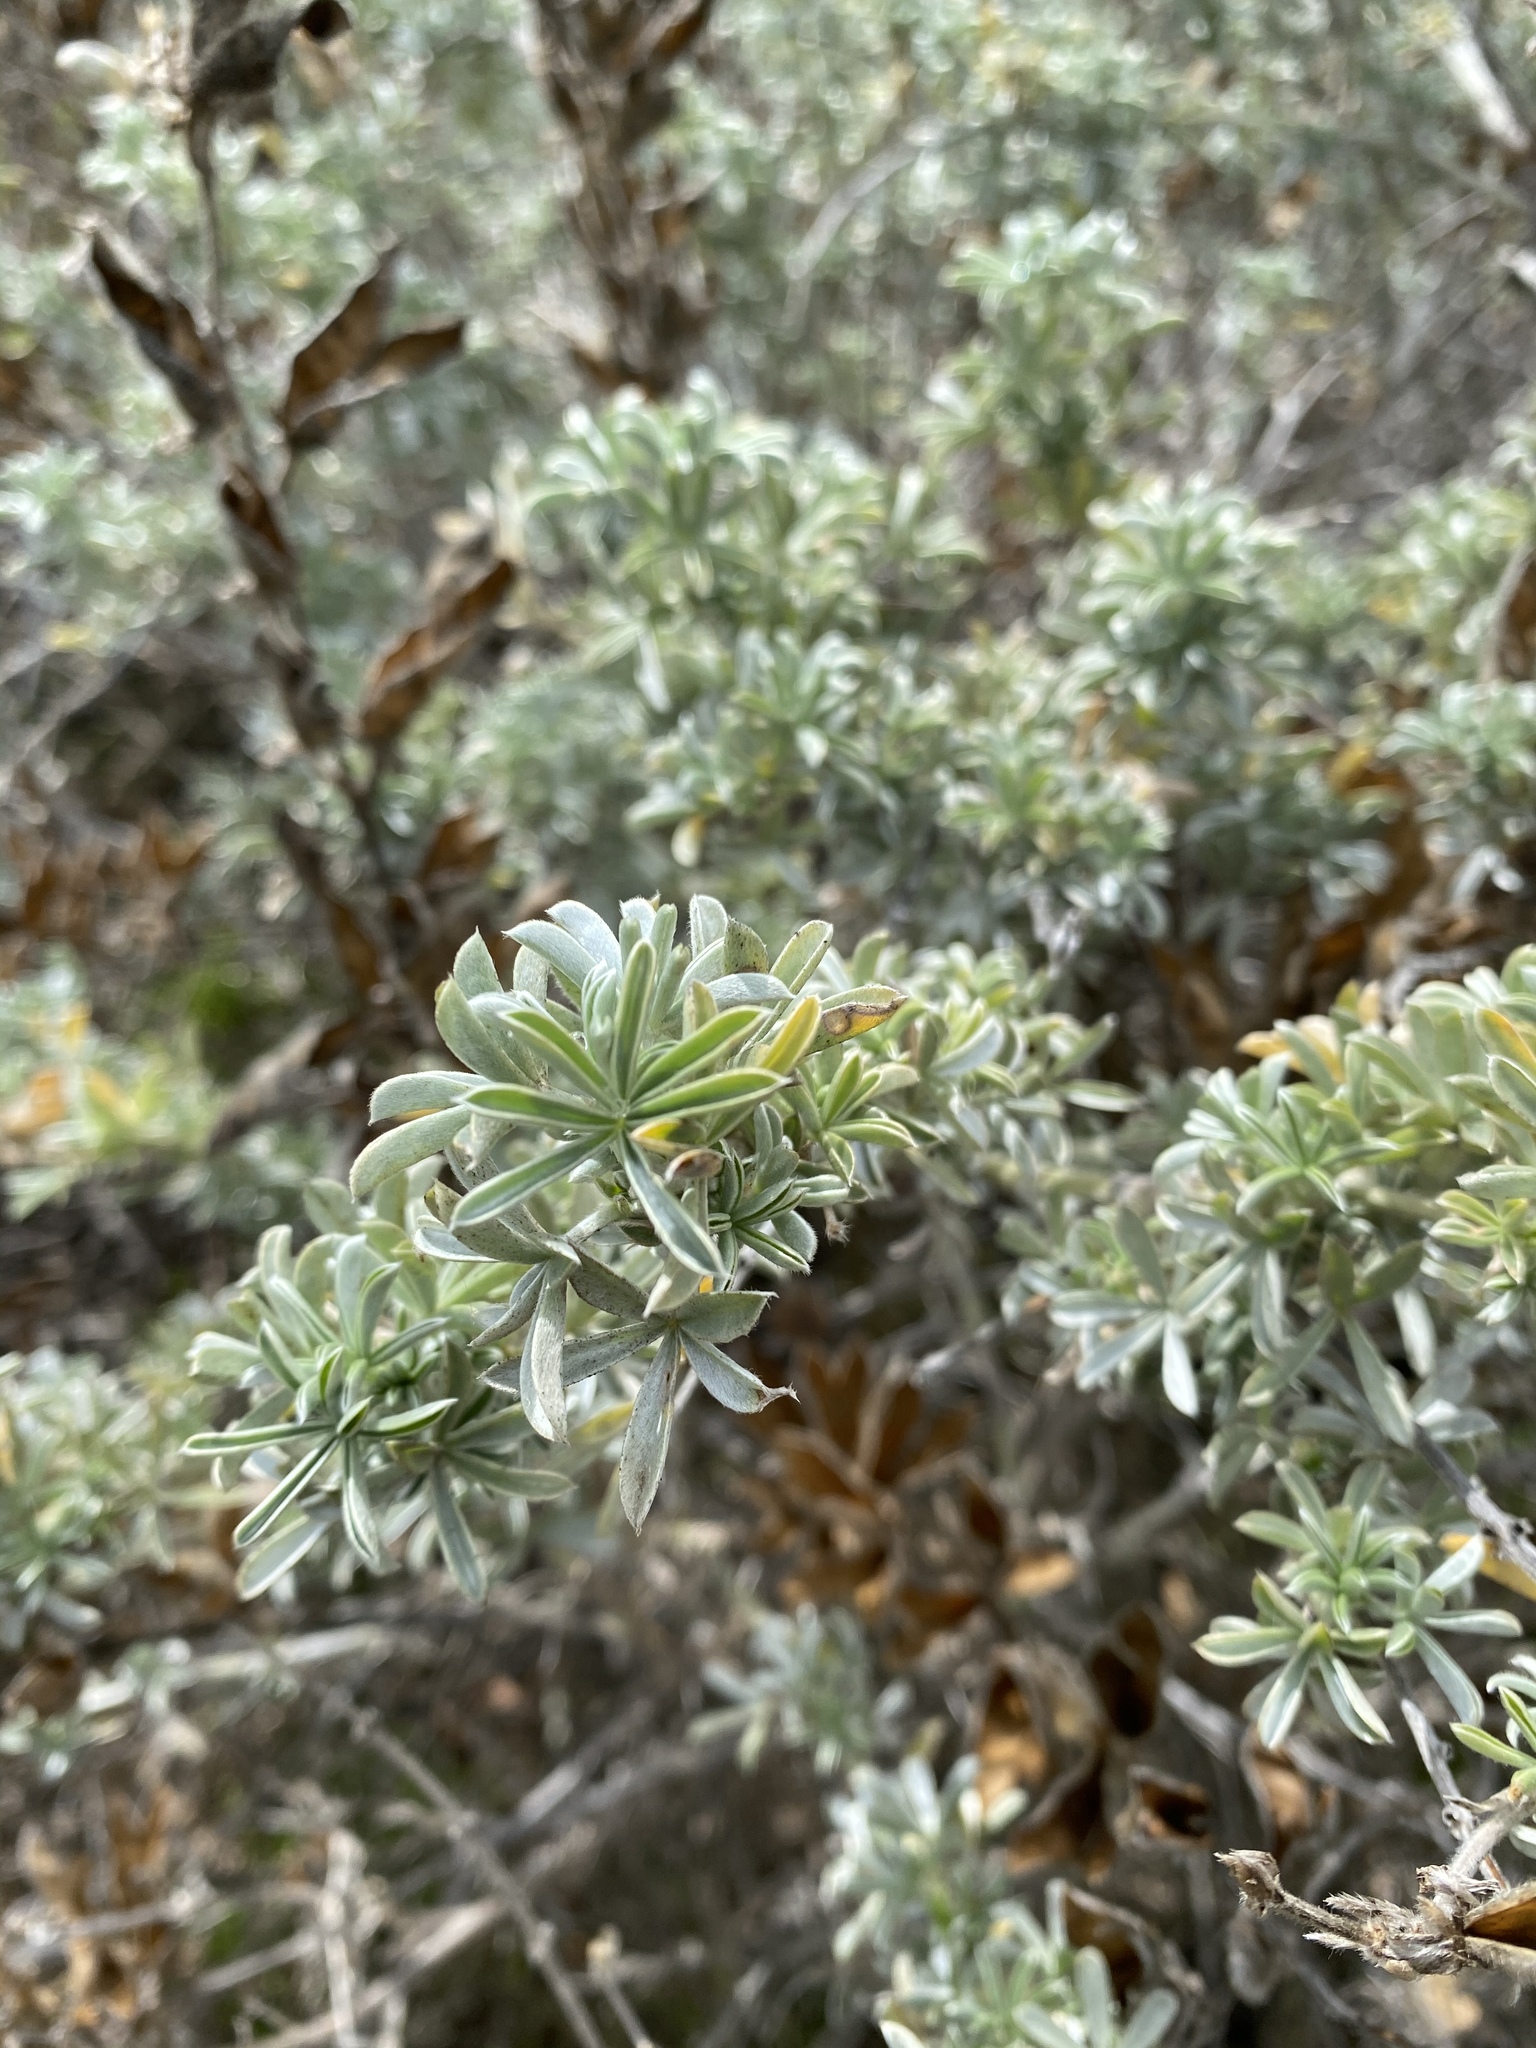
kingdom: Plantae
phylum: Tracheophyta
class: Magnoliopsida
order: Fabales
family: Fabaceae
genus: Lupinus
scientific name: Lupinus chamissonis
